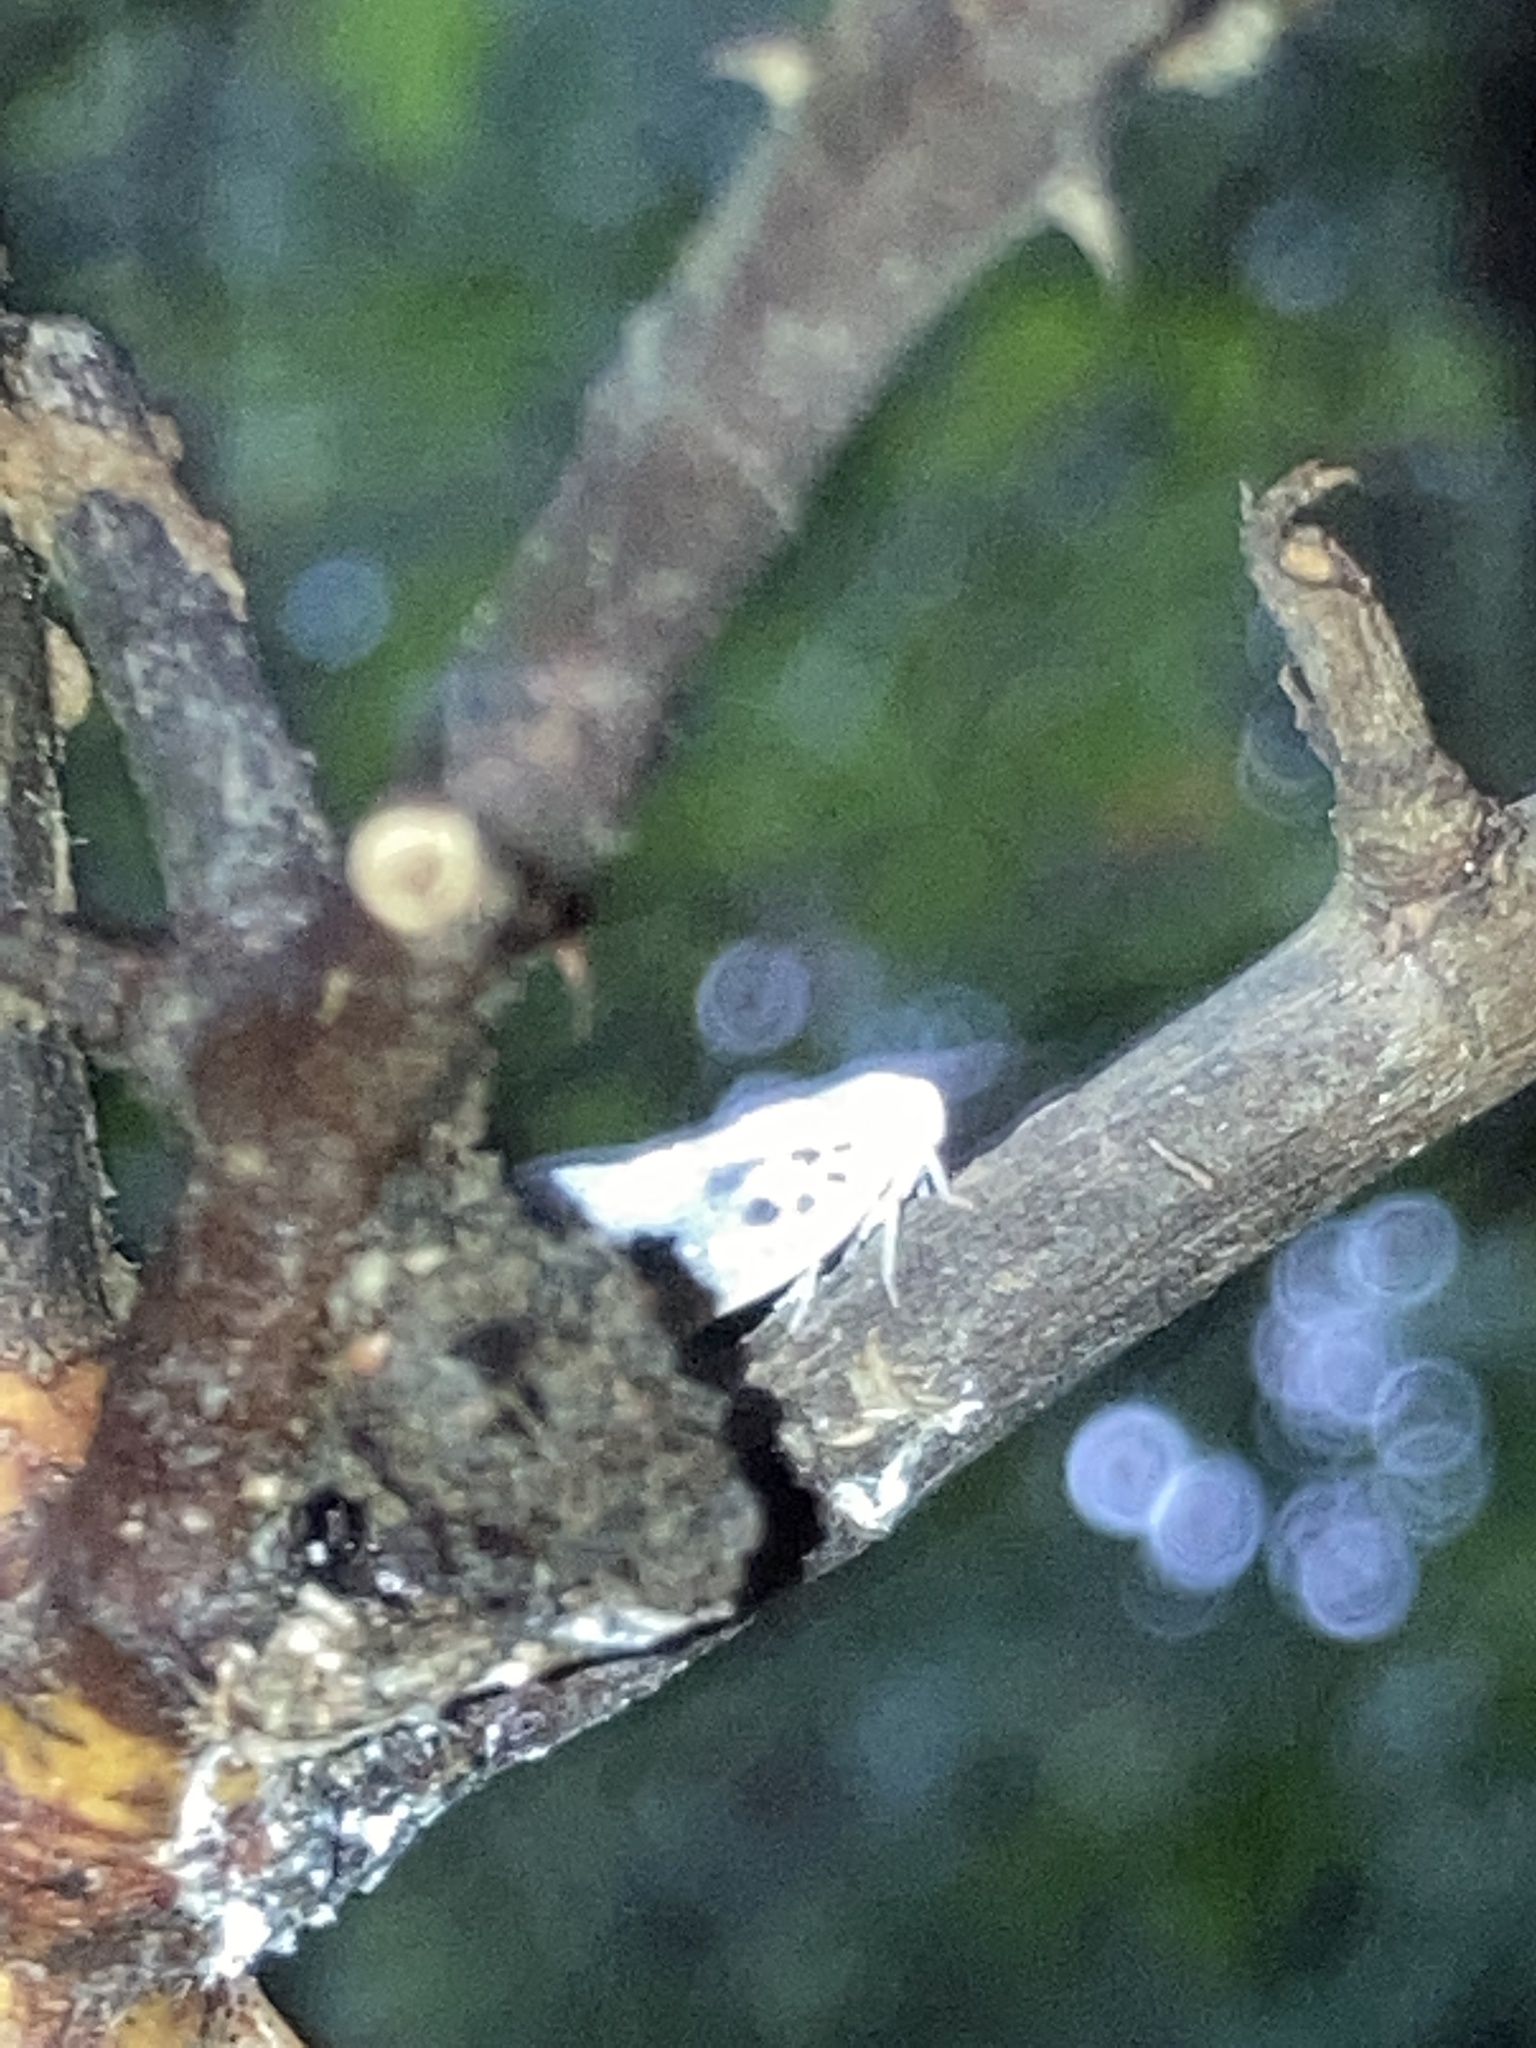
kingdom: Animalia
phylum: Arthropoda
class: Insecta
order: Hemiptera
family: Flatidae
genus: Metcalfa
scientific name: Metcalfa pruinosa
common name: Citrus flatid planthopper
